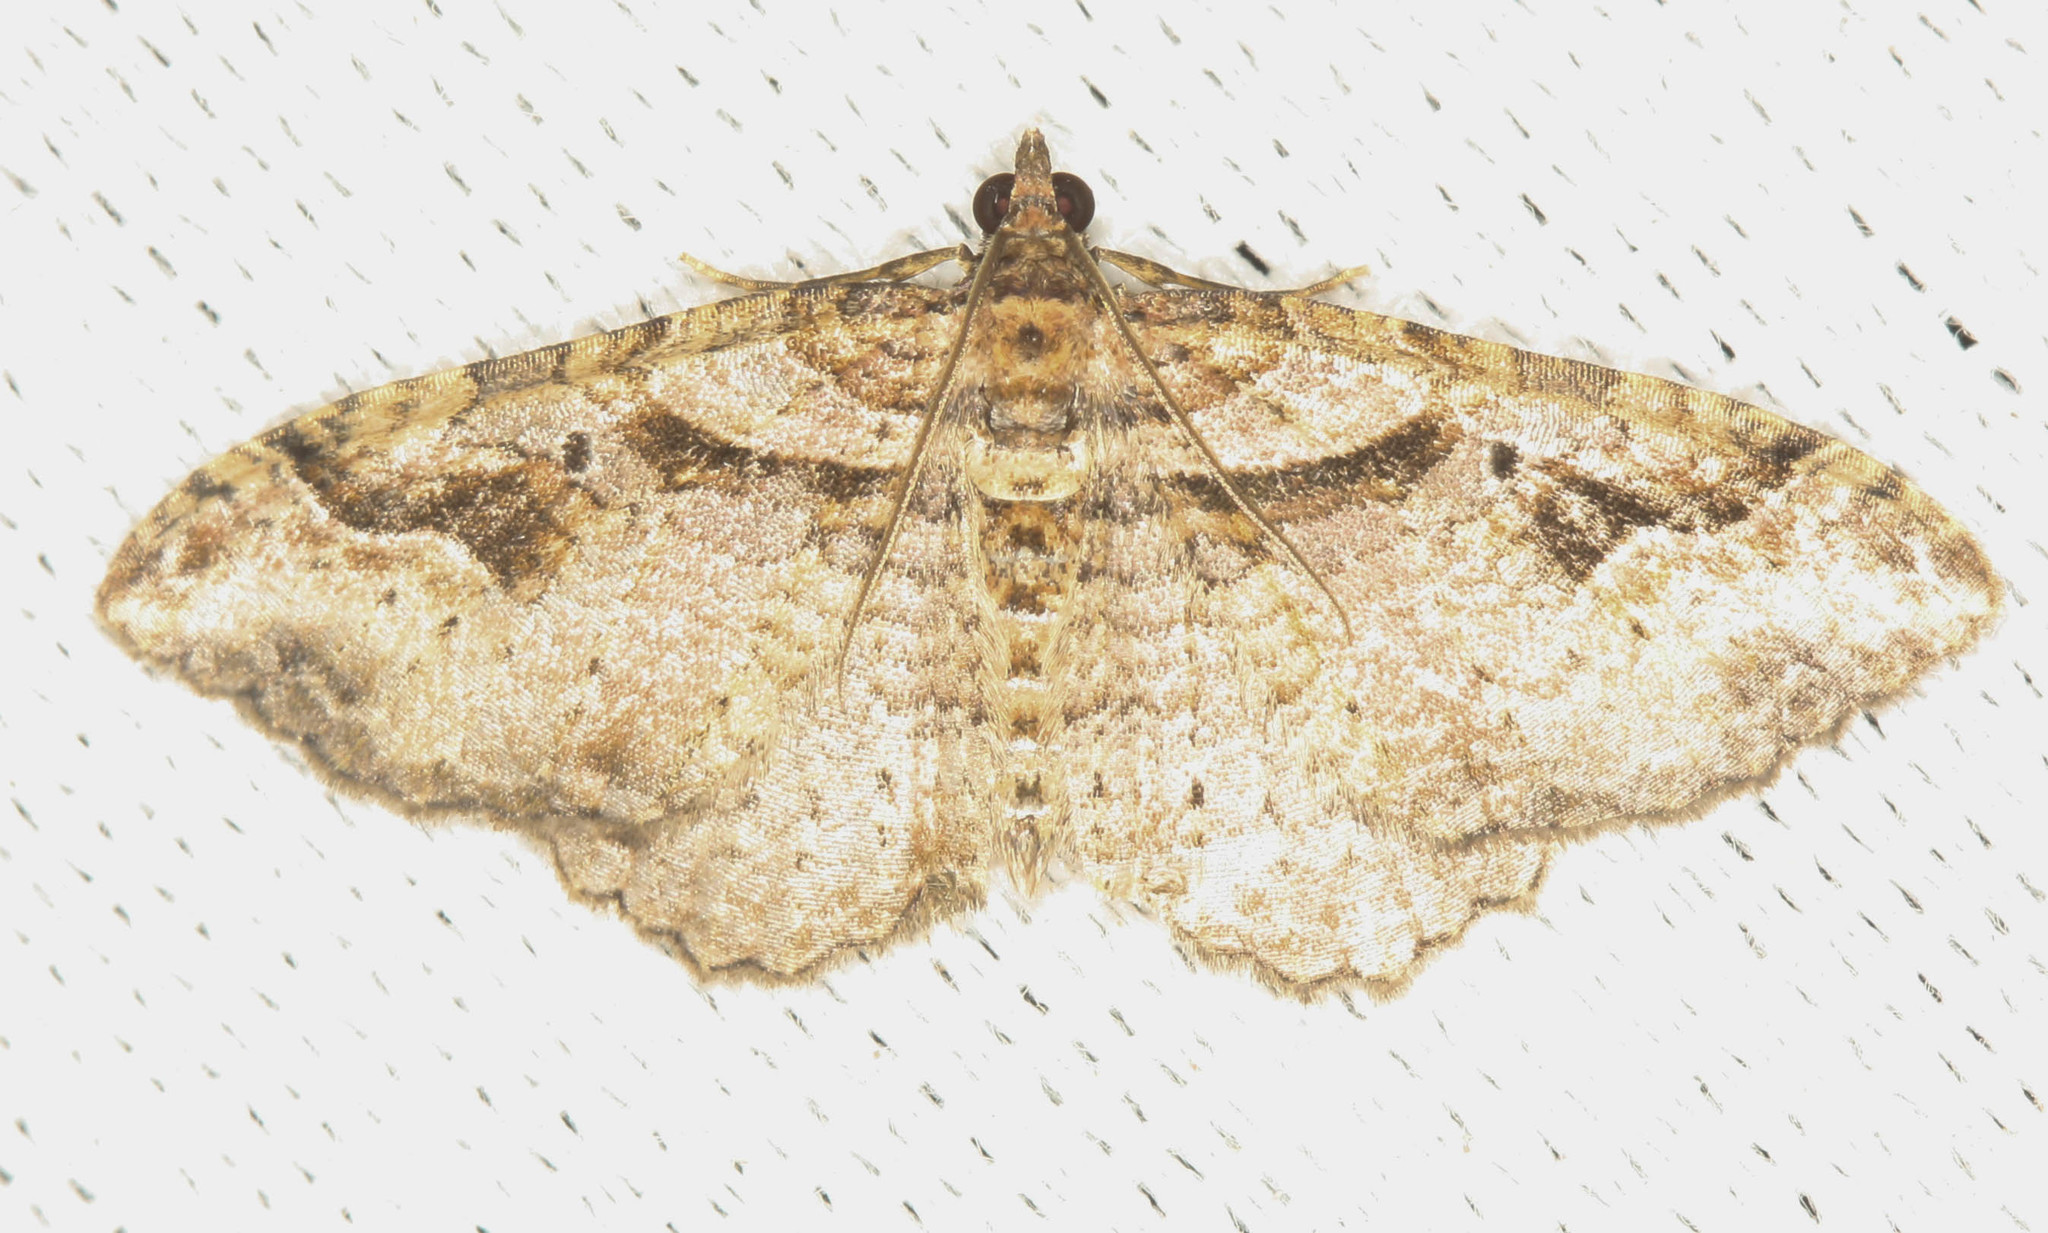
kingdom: Animalia
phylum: Arthropoda
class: Insecta
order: Lepidoptera
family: Geometridae
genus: Costaconvexa
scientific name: Costaconvexa centrostrigaria
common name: Bent-line carpet
